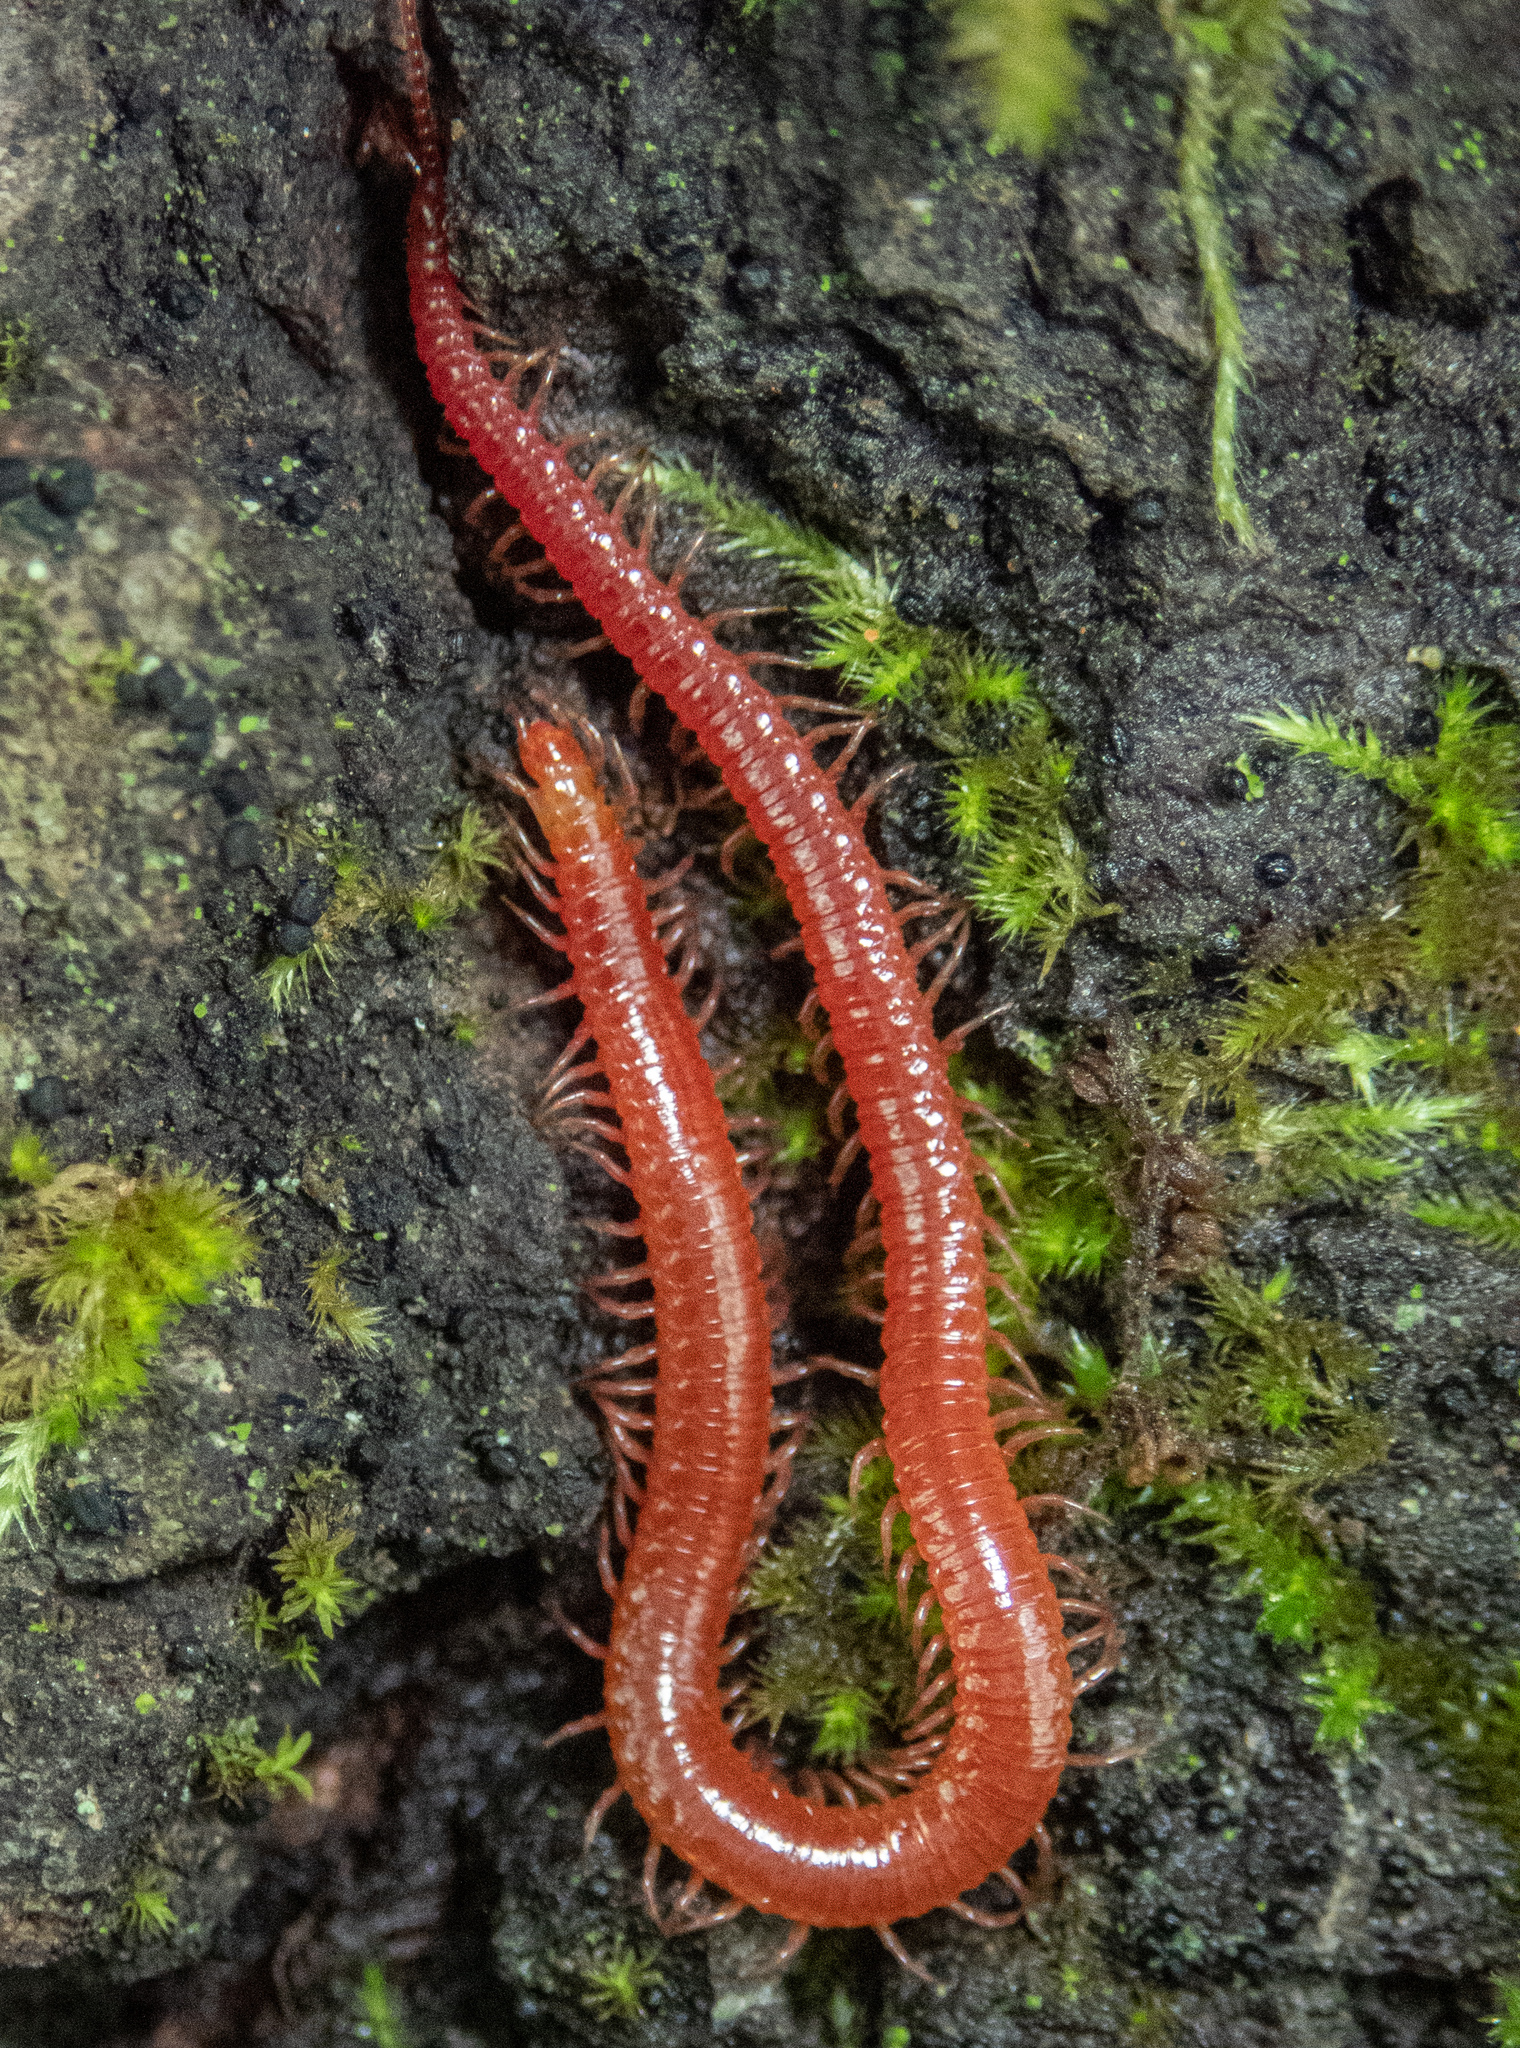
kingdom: Animalia
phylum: Arthropoda
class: Chilopoda
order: Geophilomorpha
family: Linotaeniidae
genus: Strigamia
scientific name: Strigamia
